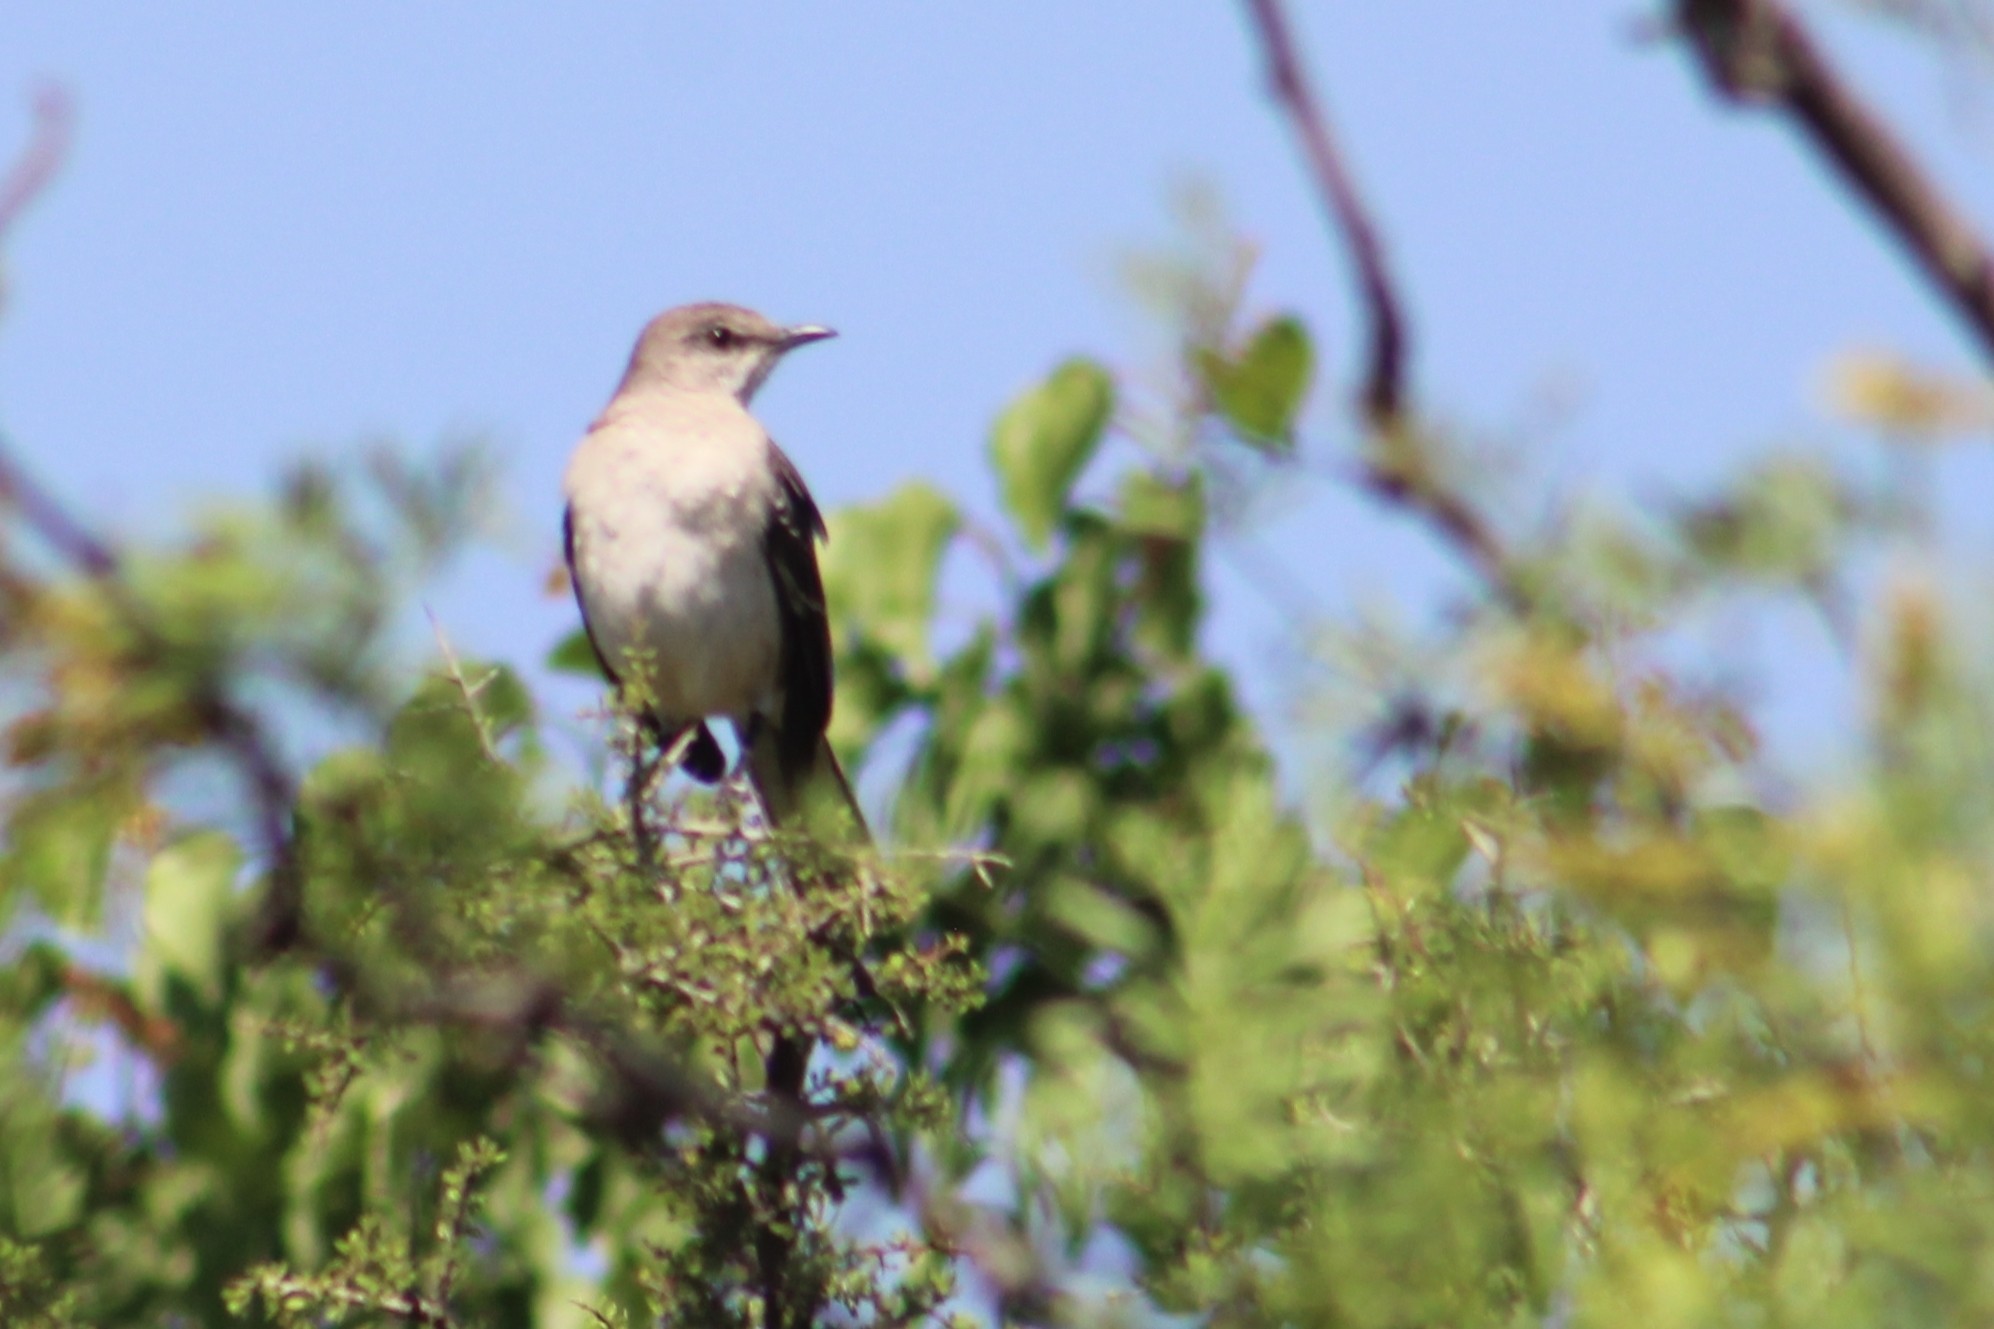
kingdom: Animalia
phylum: Chordata
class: Aves
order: Passeriformes
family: Mimidae
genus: Mimus
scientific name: Mimus polyglottos
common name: Northern mockingbird
